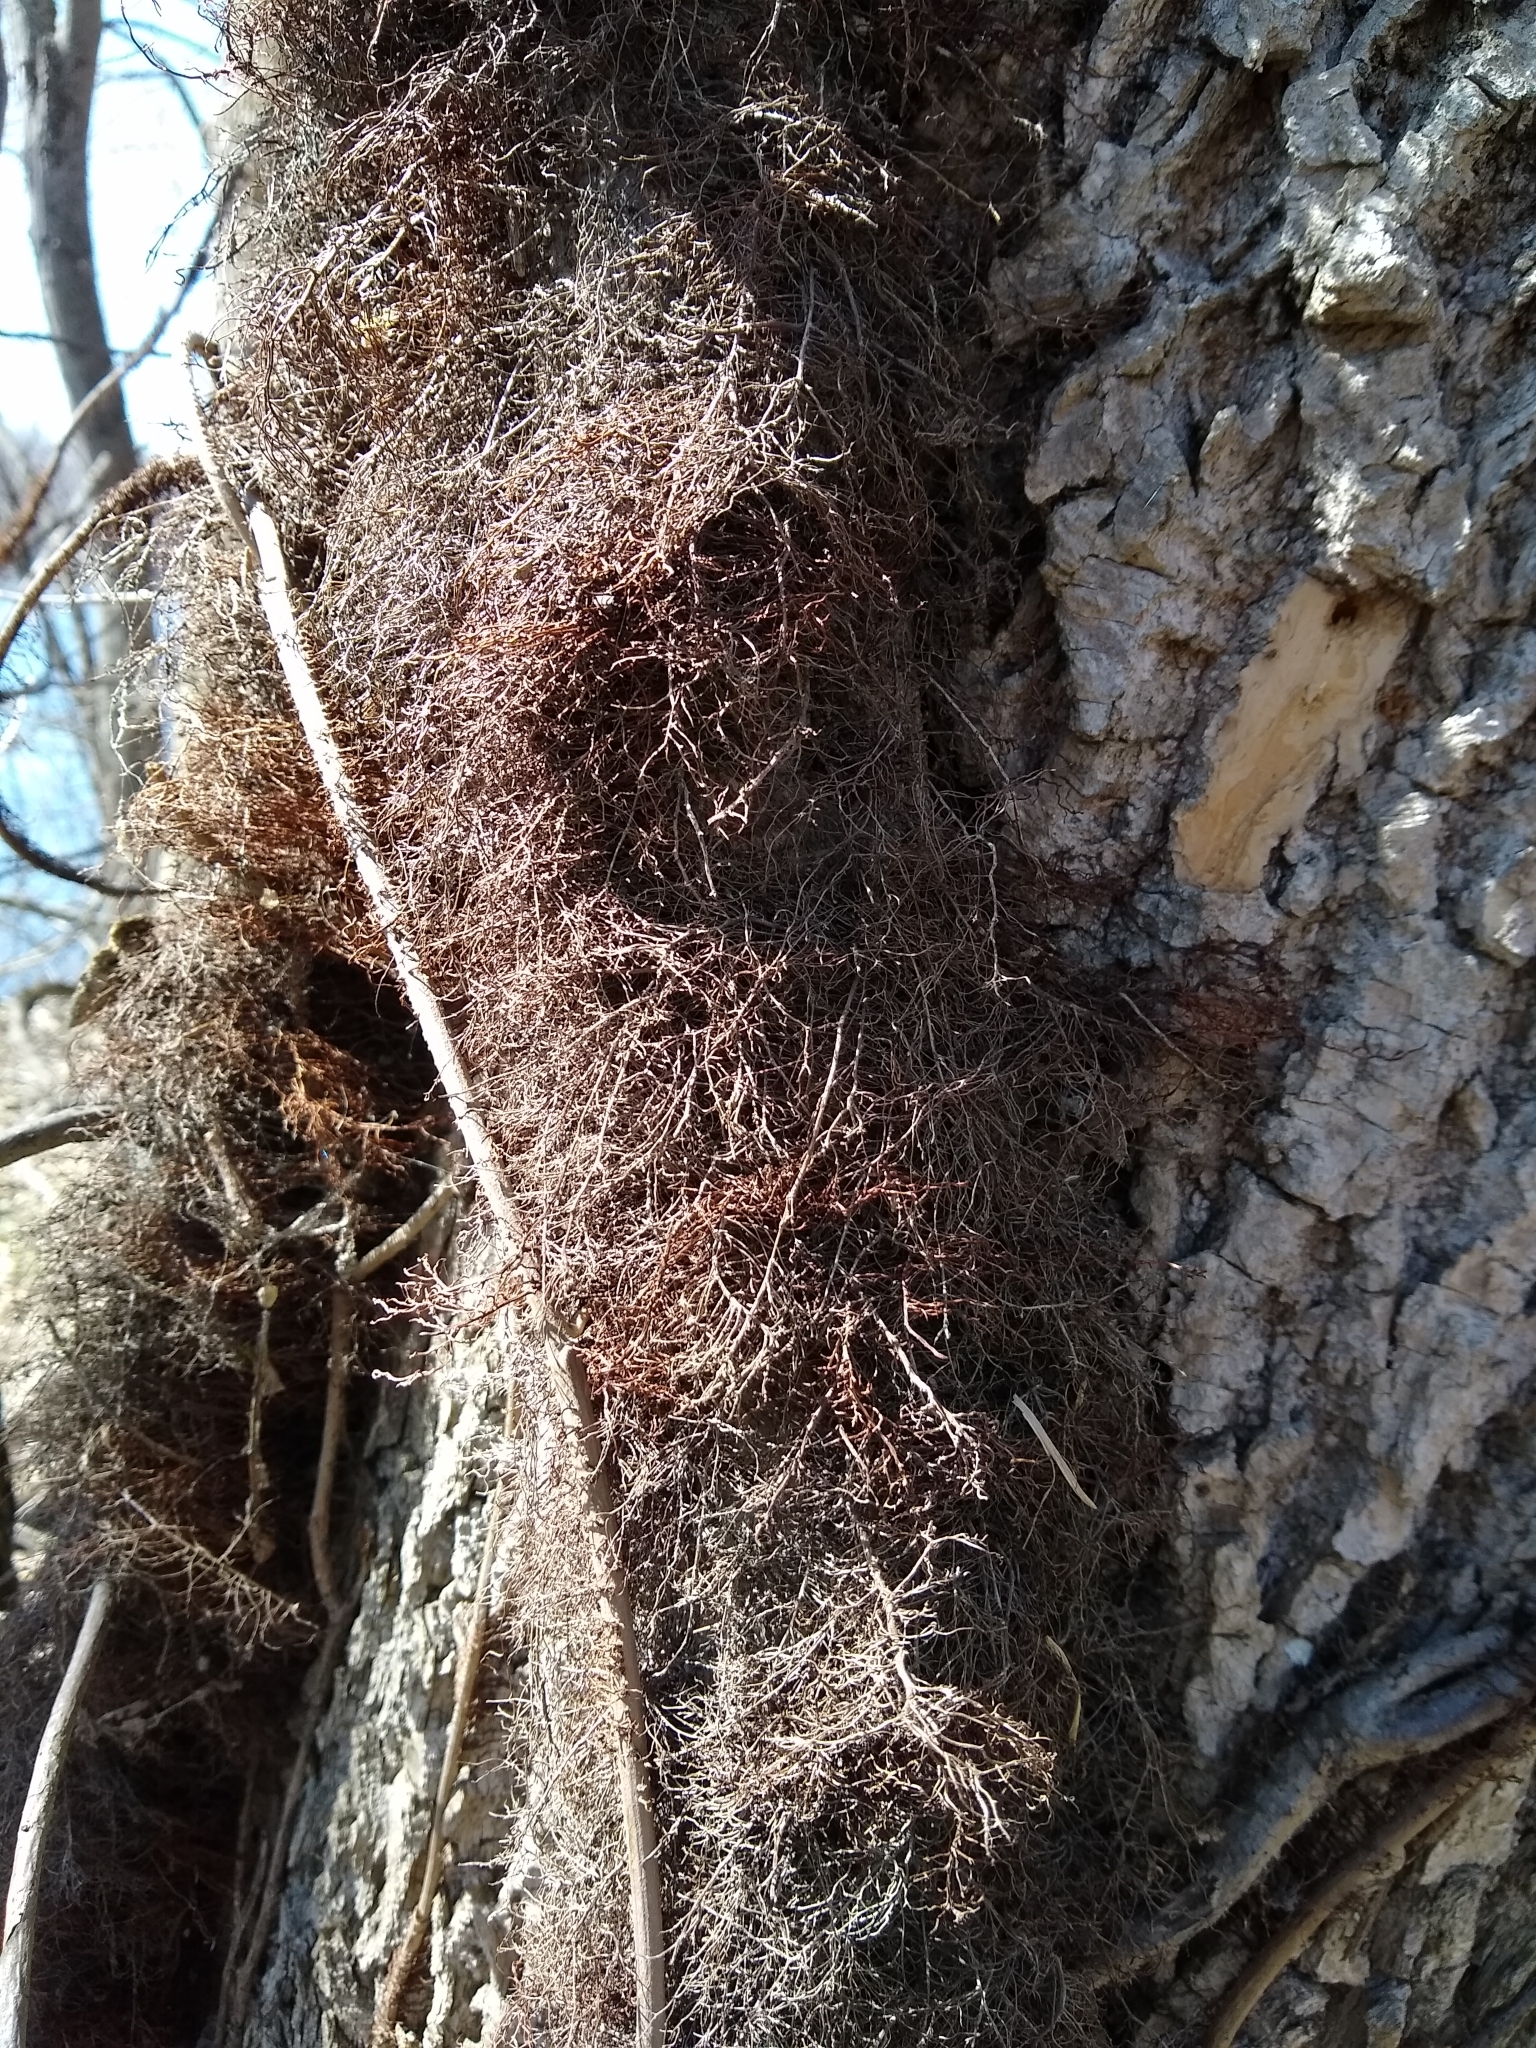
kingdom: Plantae
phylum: Tracheophyta
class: Magnoliopsida
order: Sapindales
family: Anacardiaceae
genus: Toxicodendron
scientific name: Toxicodendron radicans
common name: Poison ivy
